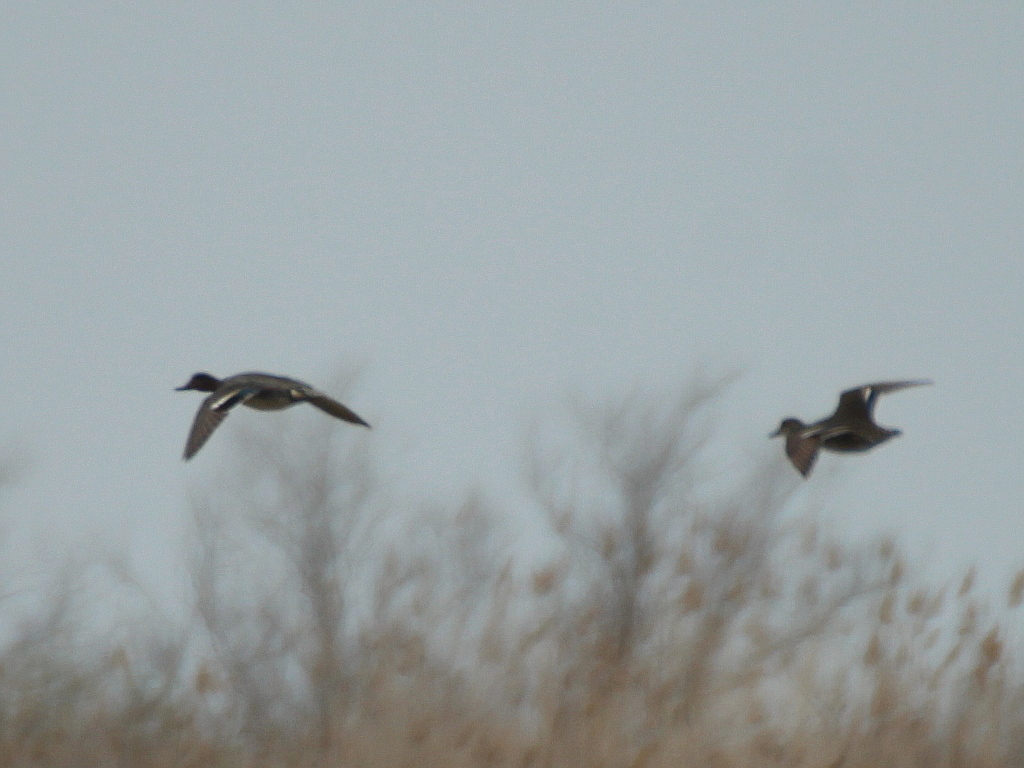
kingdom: Animalia
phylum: Chordata
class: Aves
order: Anseriformes
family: Anatidae
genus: Anas
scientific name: Anas crecca
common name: Eurasian teal
